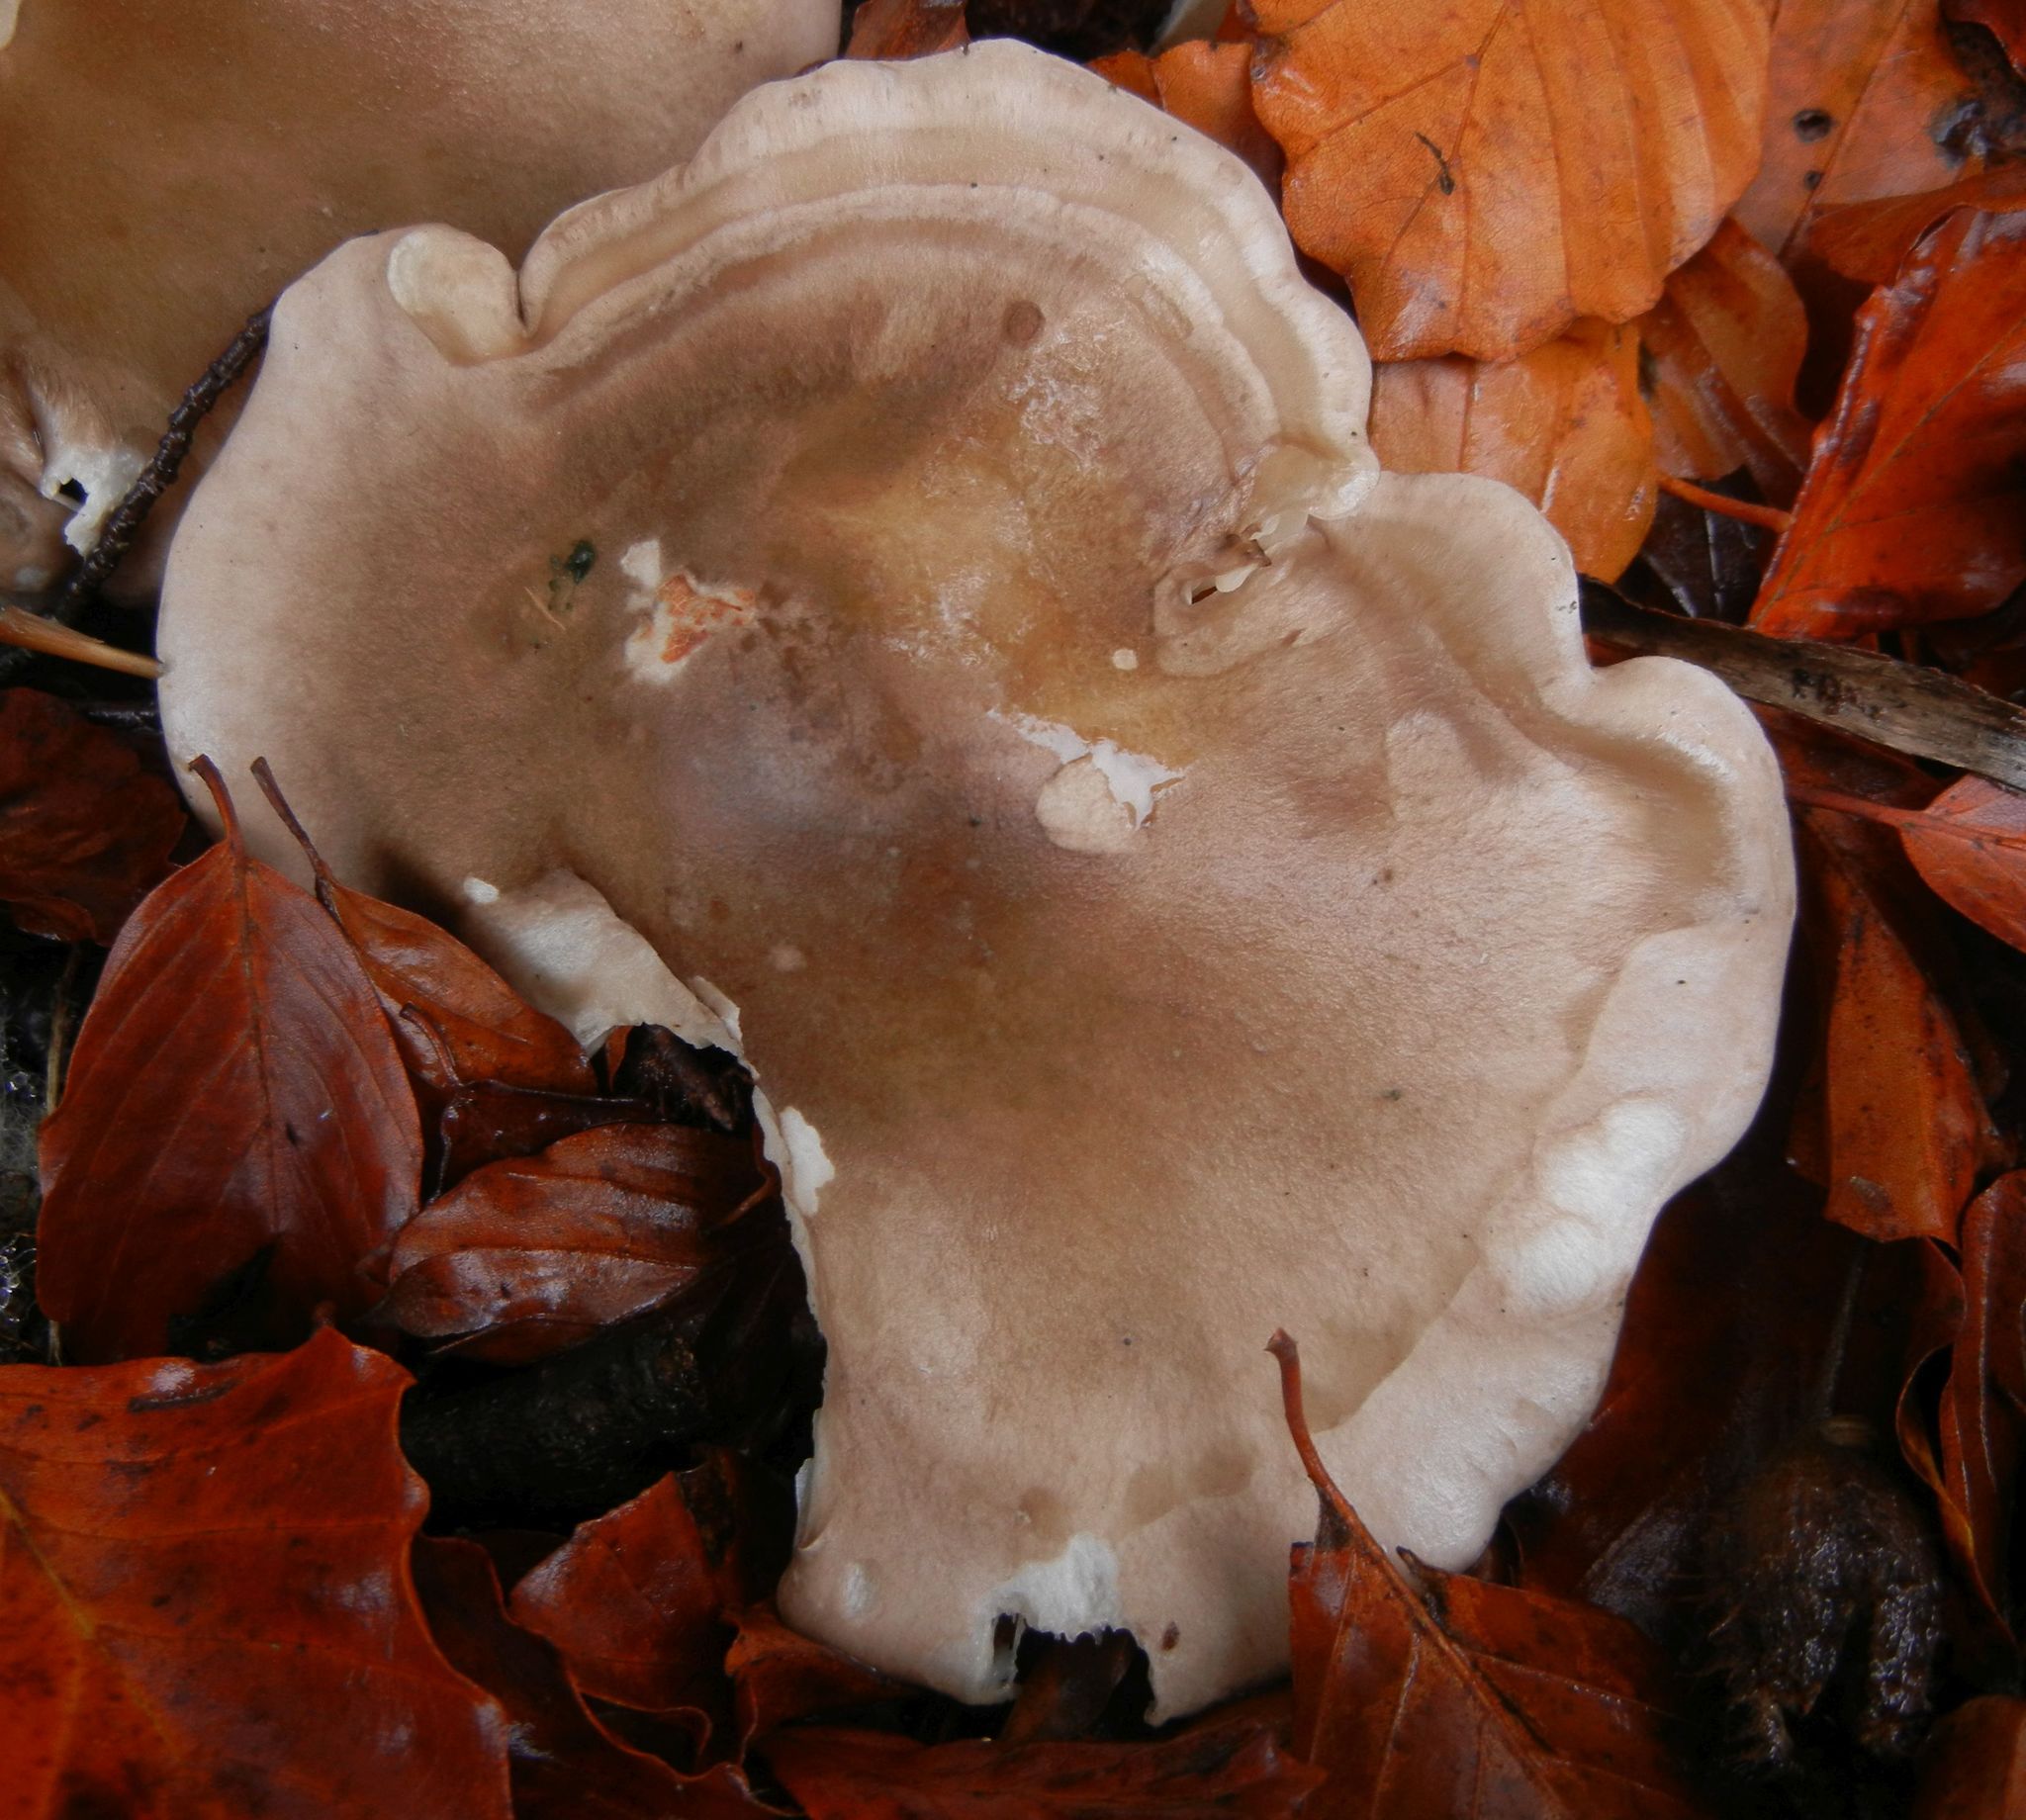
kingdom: Fungi
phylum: Basidiomycota
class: Agaricomycetes
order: Agaricales
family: Tricholomataceae
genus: Clitocybe
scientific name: Clitocybe nebularis
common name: Clouded agaric
